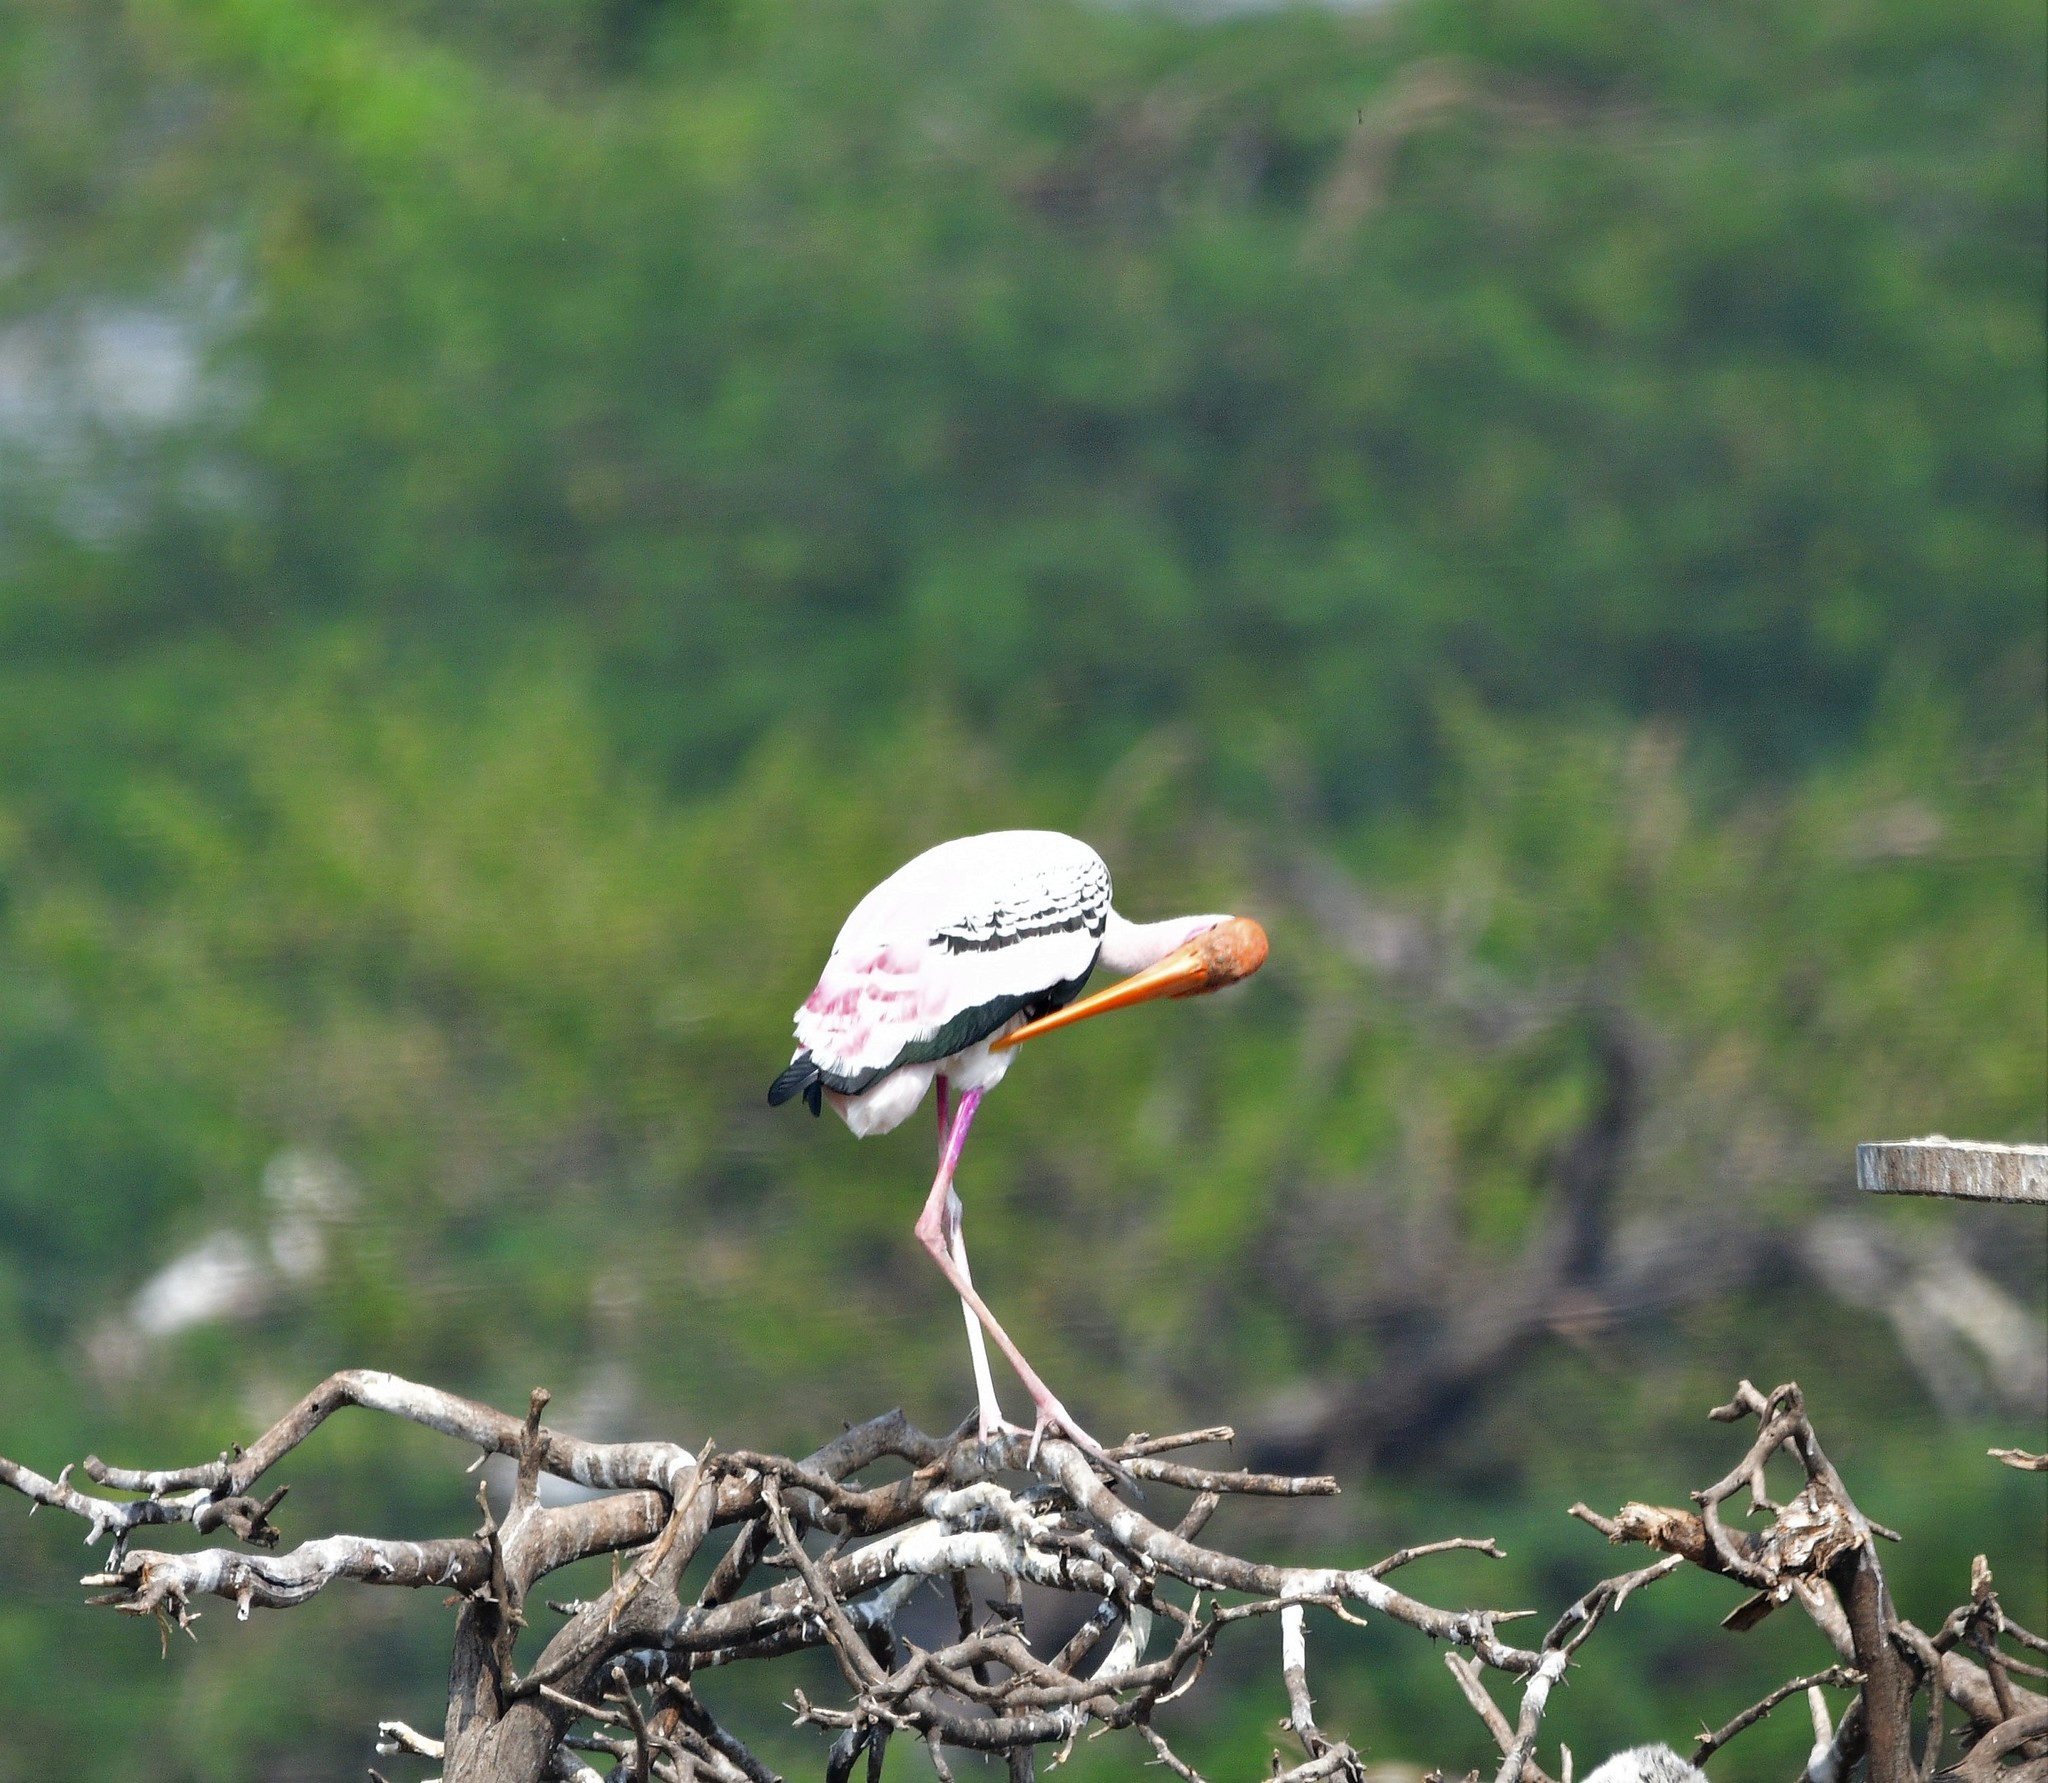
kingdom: Animalia
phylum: Chordata
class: Aves
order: Ciconiiformes
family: Ciconiidae
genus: Mycteria
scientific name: Mycteria leucocephala
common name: Painted stork
